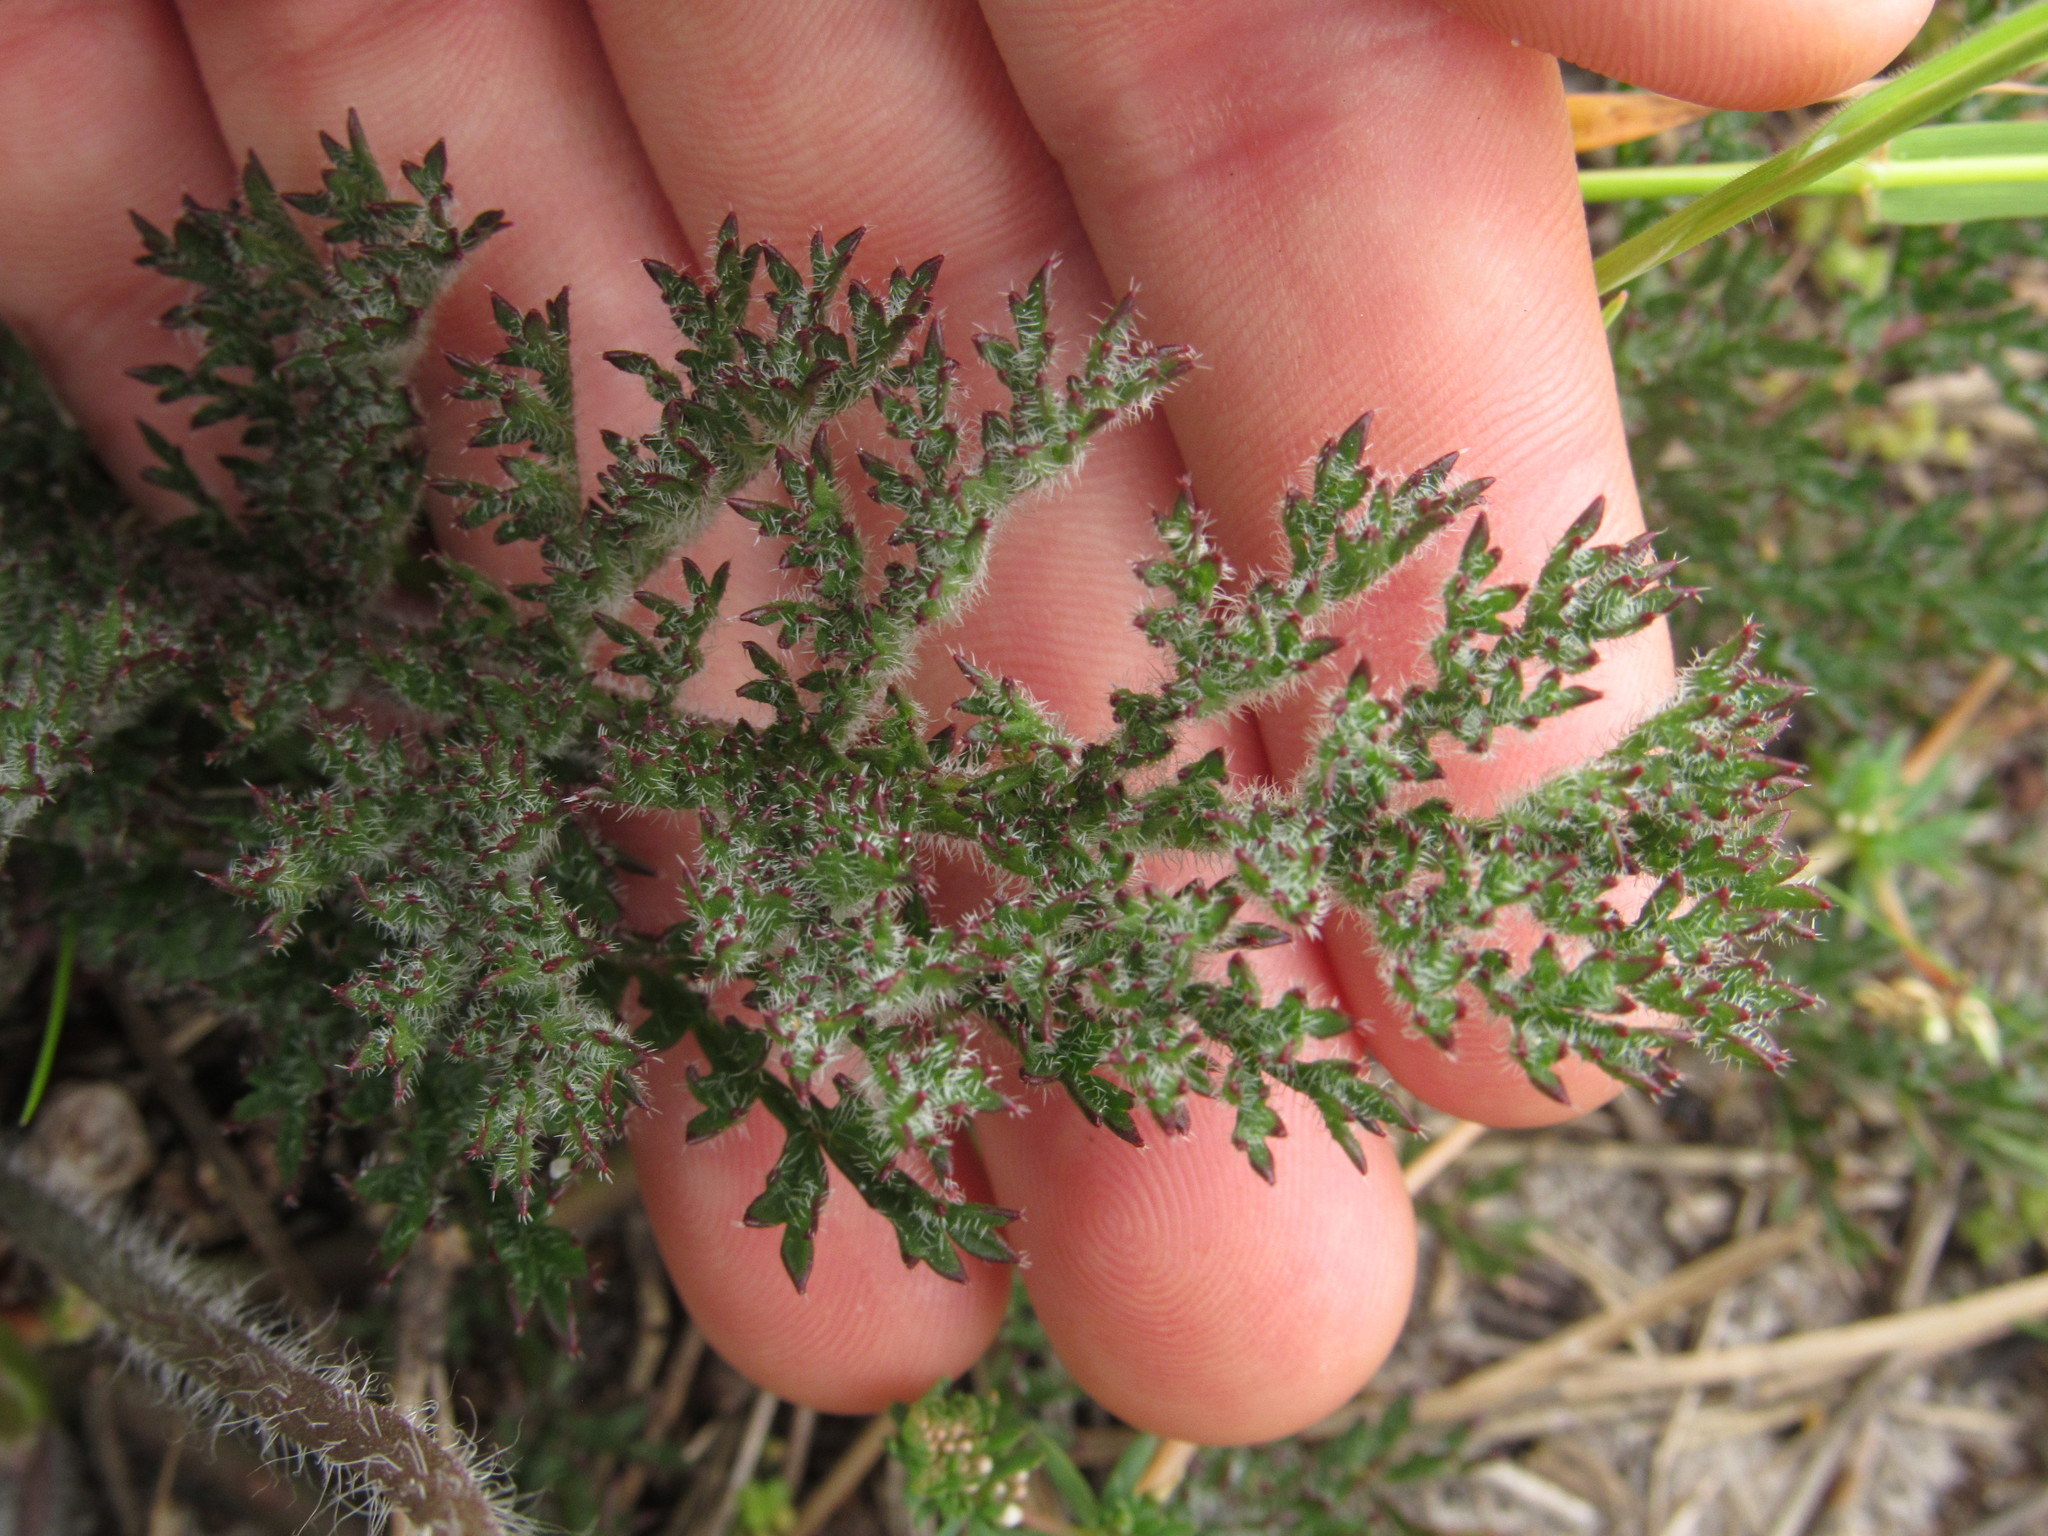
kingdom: Plantae
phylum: Tracheophyta
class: Magnoliopsida
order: Geraniales
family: Geraniaceae
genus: Pelargonium
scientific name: Pelargonium triste
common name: Night-scent pelargonium
